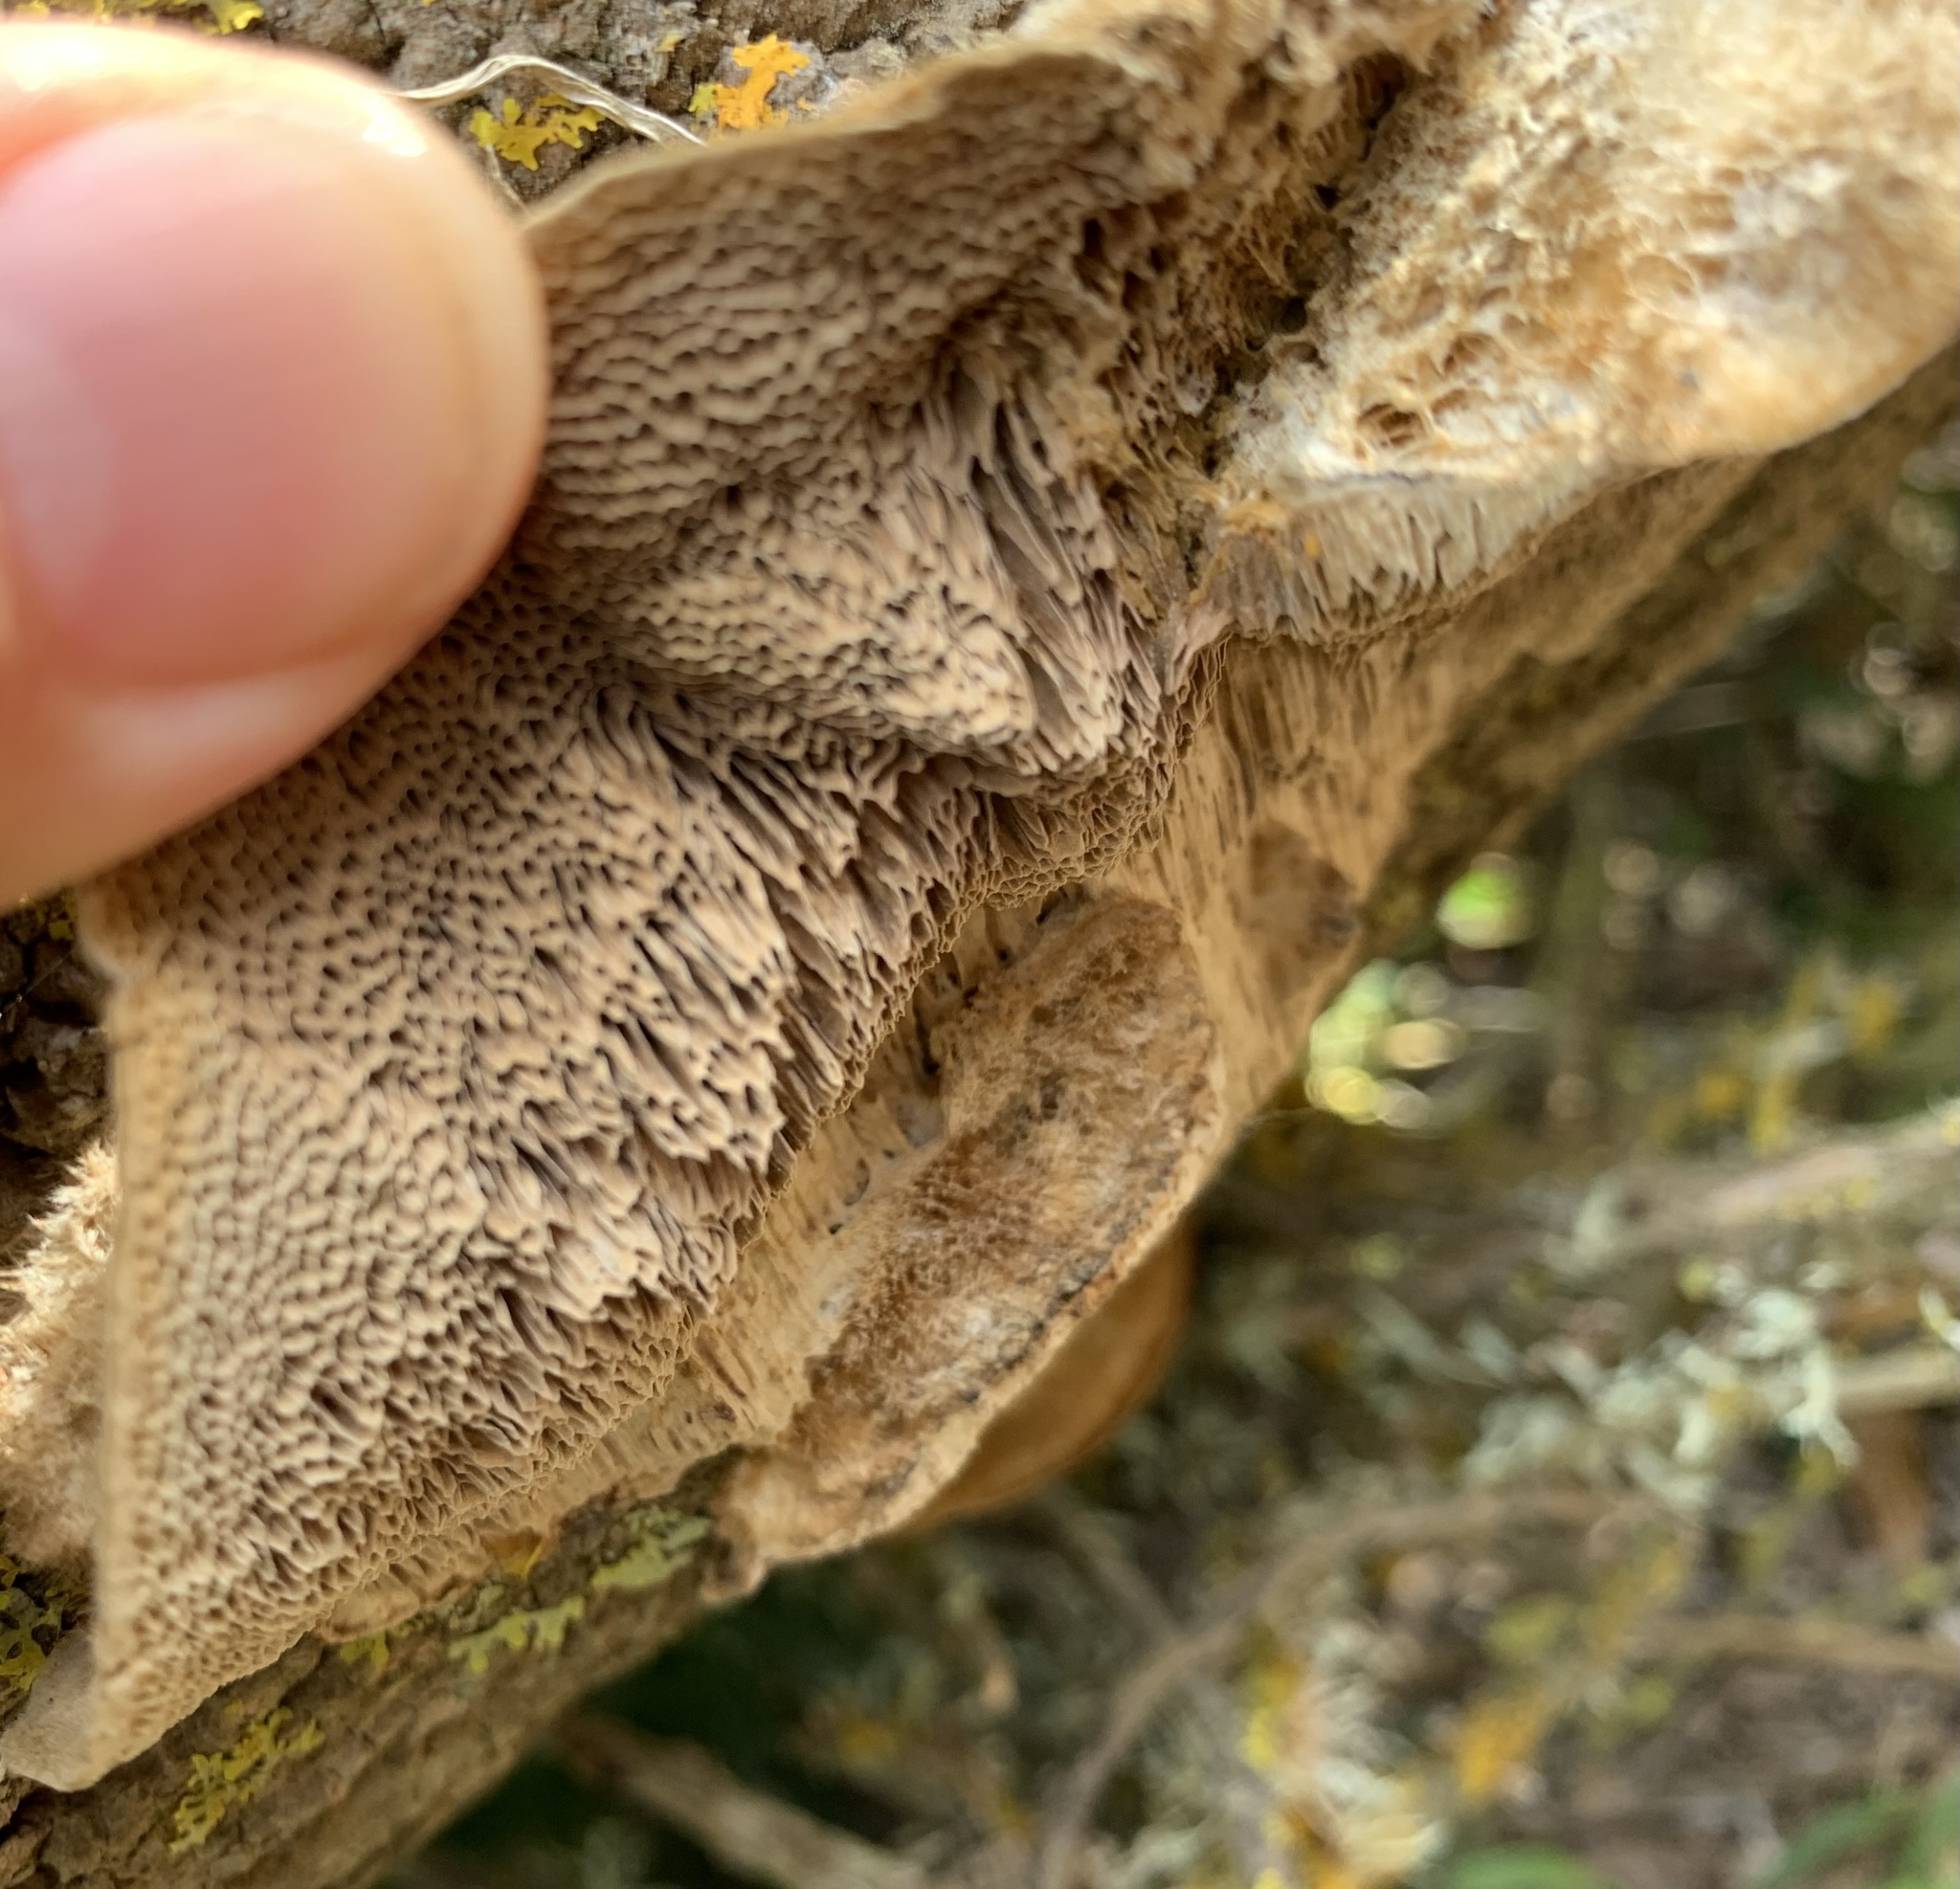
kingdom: Fungi
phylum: Basidiomycota
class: Agaricomycetes
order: Polyporales
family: Polyporaceae
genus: Coriolopsis
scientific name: Coriolopsis gallica
